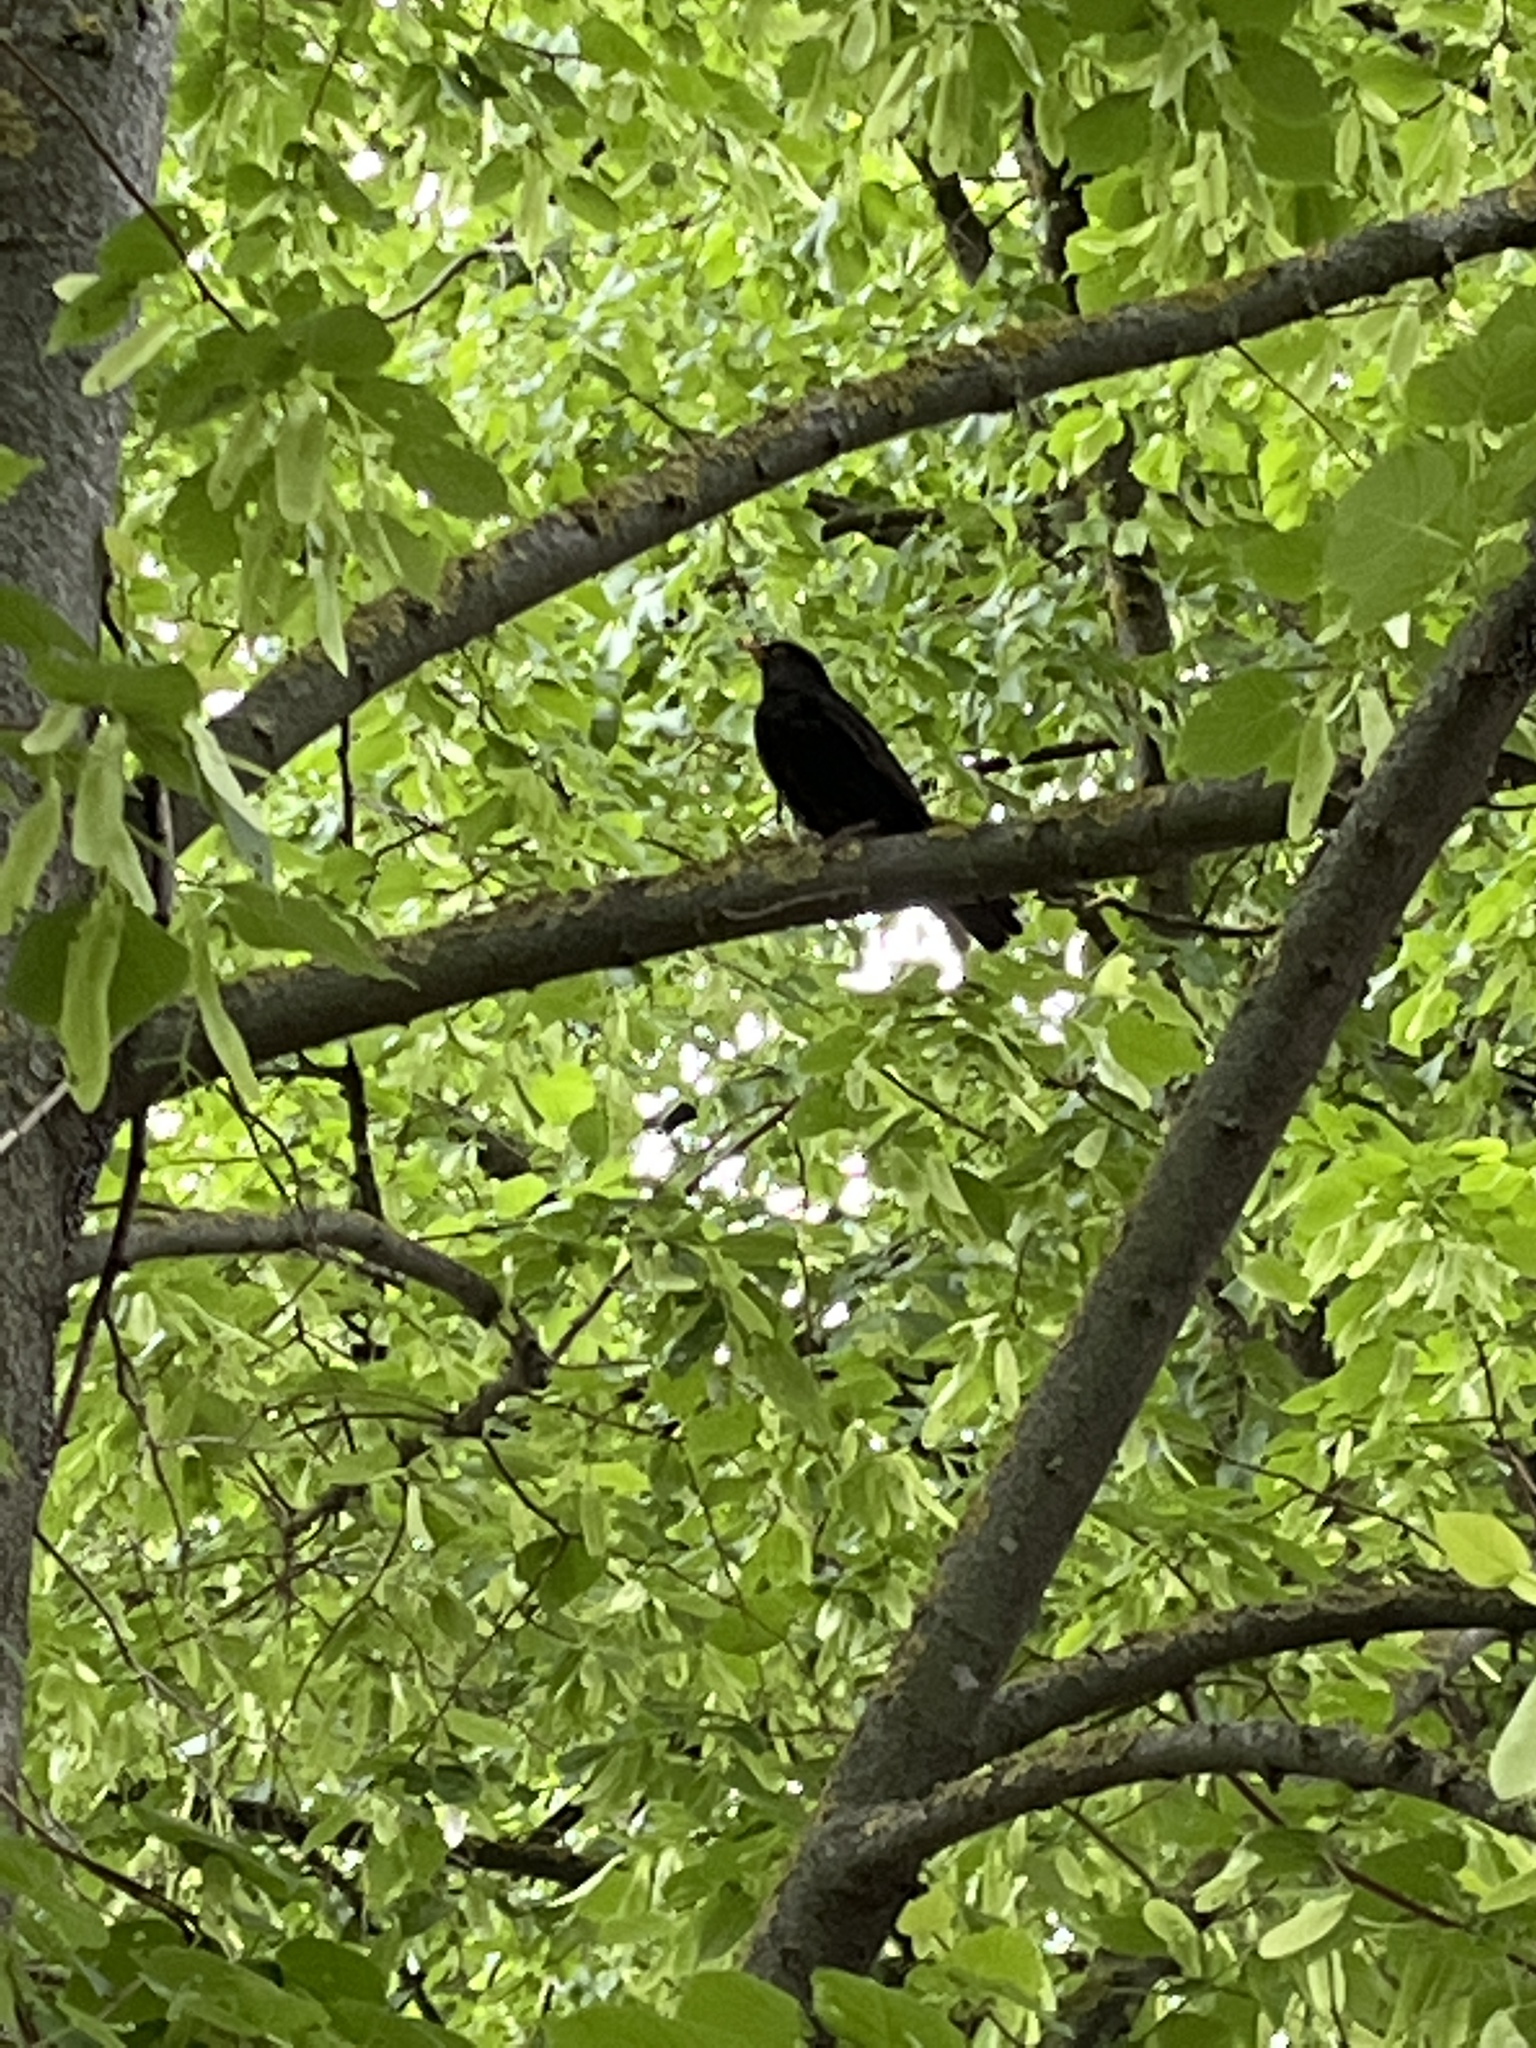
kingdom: Animalia
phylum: Chordata
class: Aves
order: Passeriformes
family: Turdidae
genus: Turdus
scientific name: Turdus merula
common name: Common blackbird
